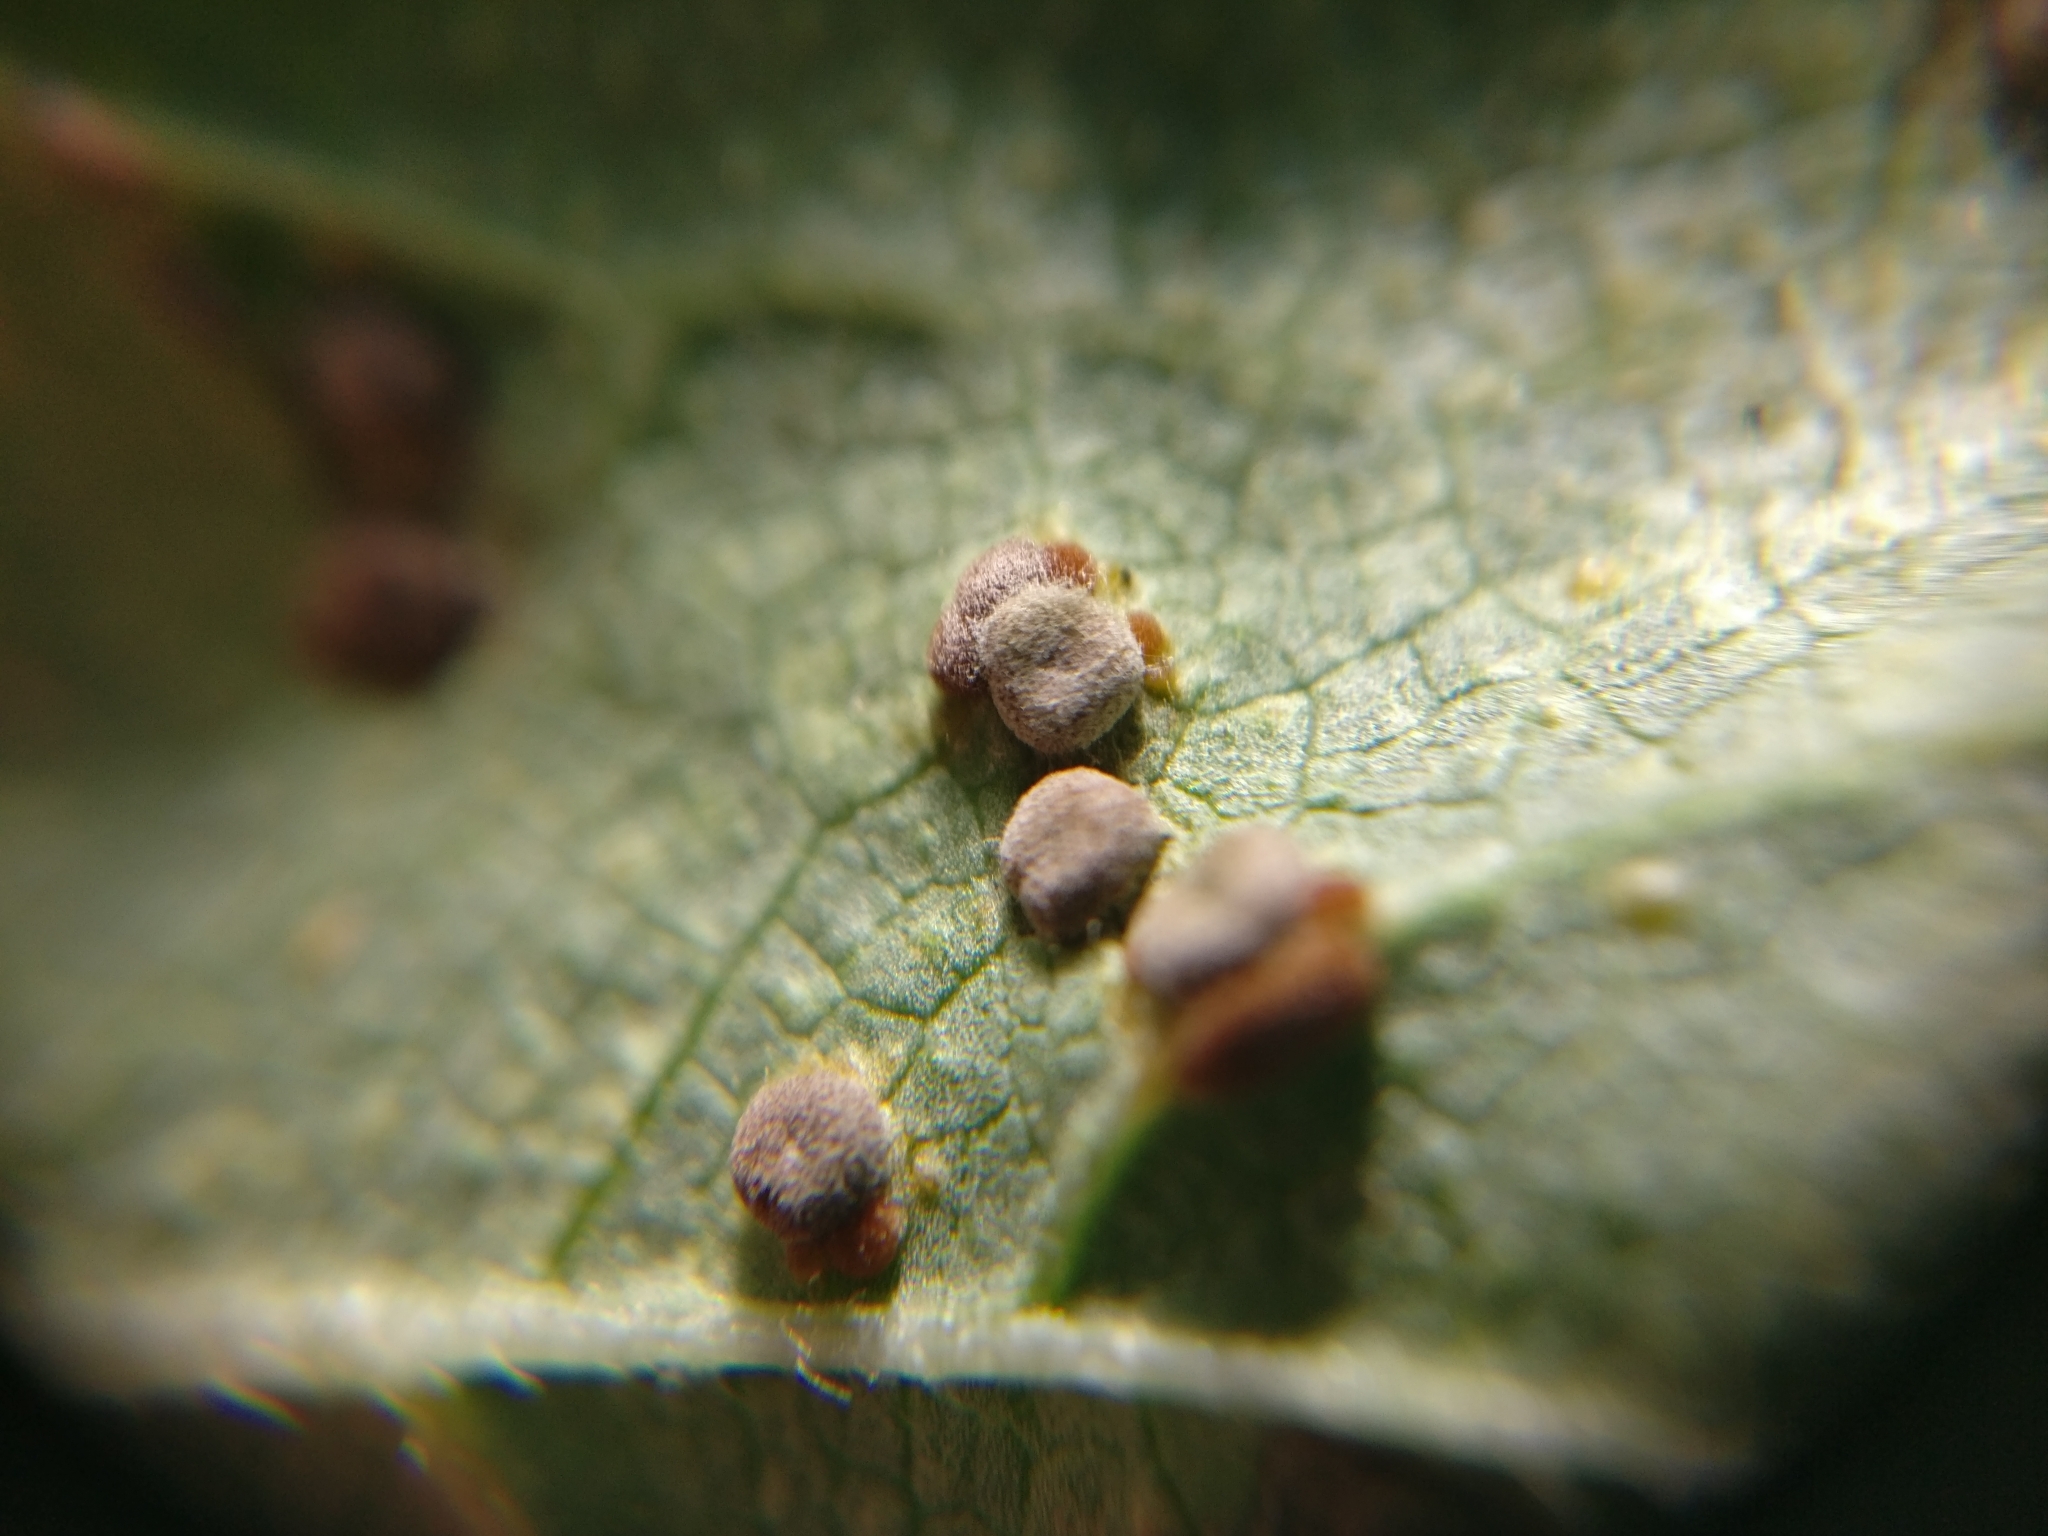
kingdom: Fungi
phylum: Basidiomycota
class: Pucciniomycetes
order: Pucciniales
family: Pucciniaceae
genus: Puccinia
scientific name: Puccinia malvacearum
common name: Hollyhock rust
